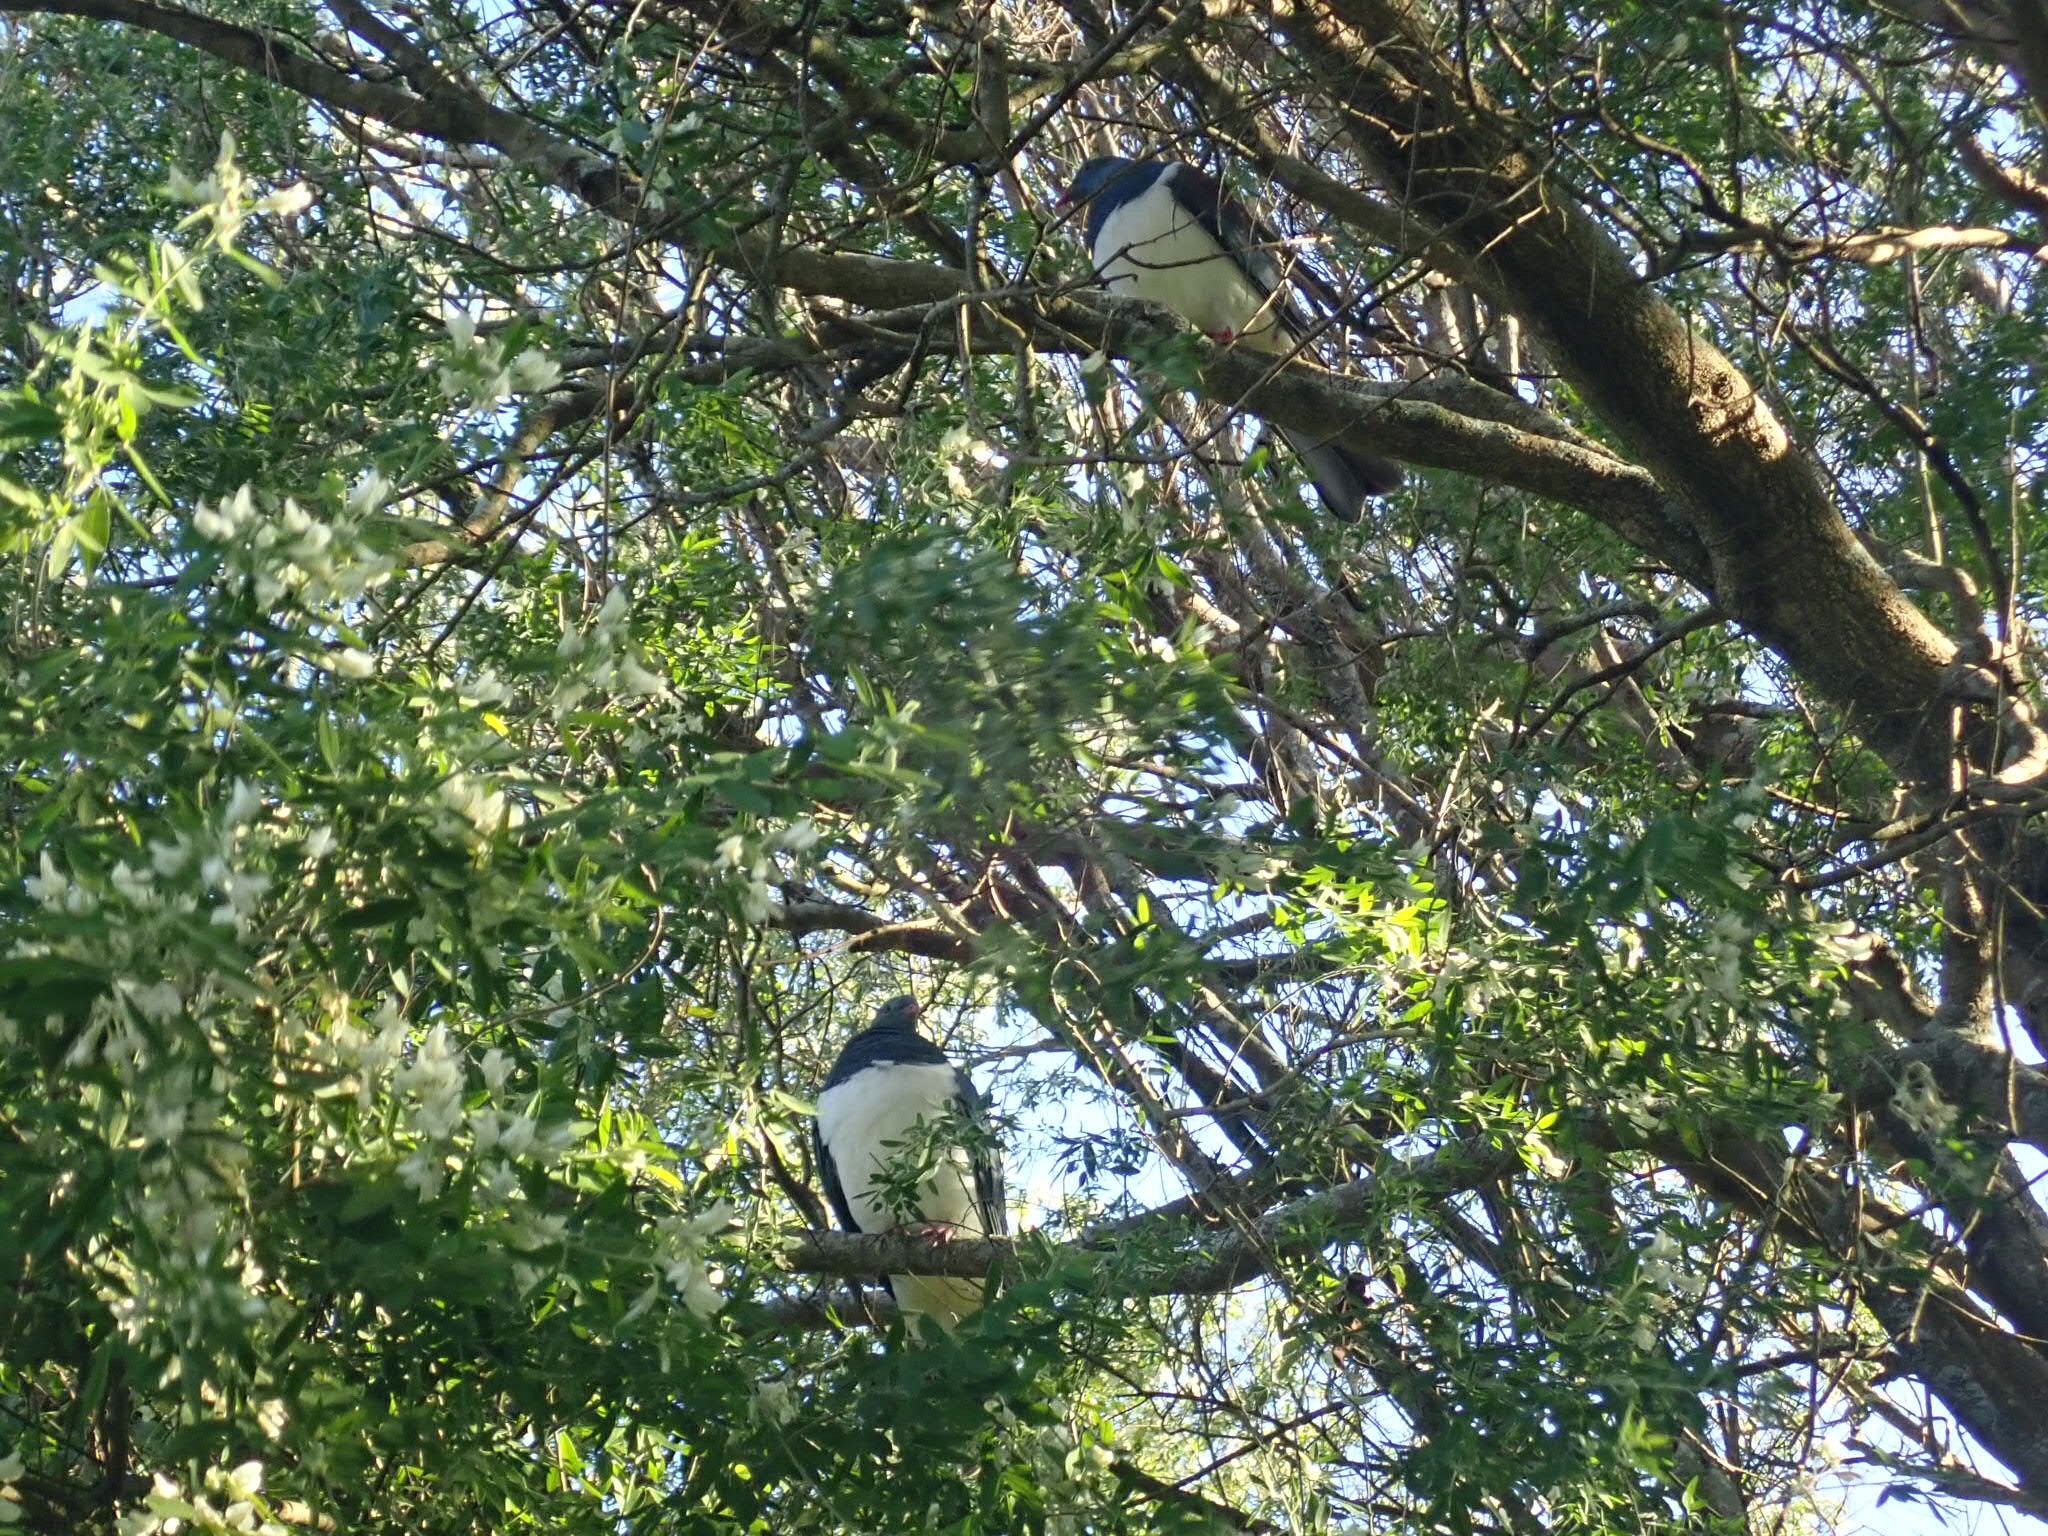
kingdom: Animalia
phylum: Chordata
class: Aves
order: Columbiformes
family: Columbidae
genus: Hemiphaga
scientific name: Hemiphaga novaeseelandiae
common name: New zealand pigeon
